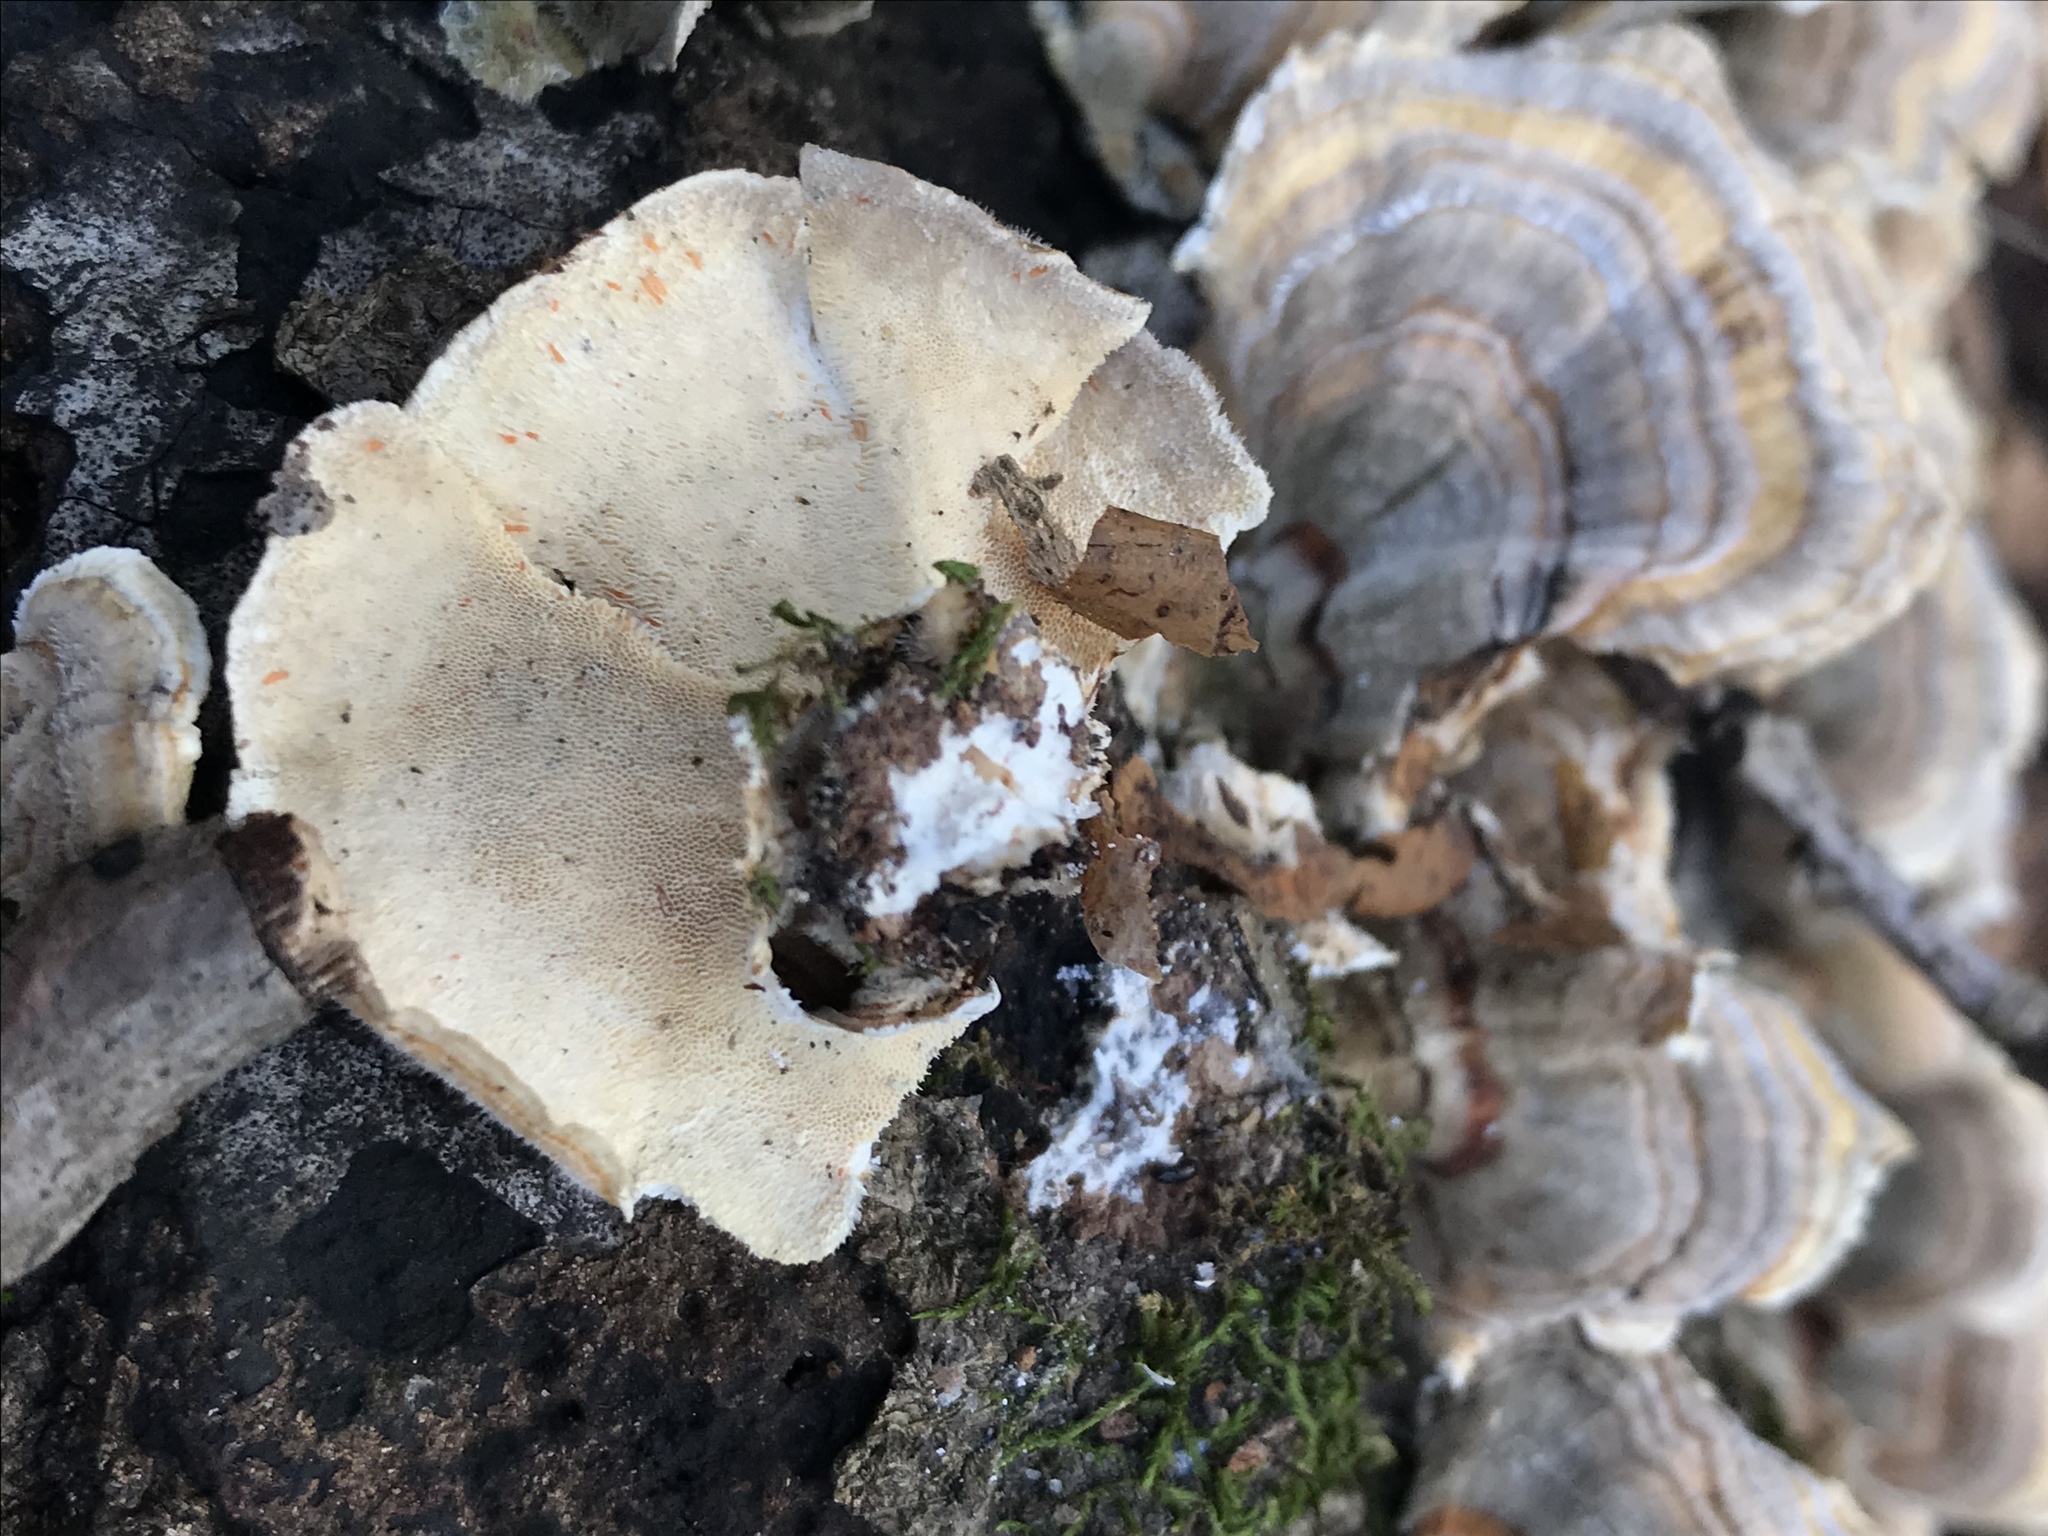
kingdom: Fungi
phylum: Basidiomycota
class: Agaricomycetes
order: Polyporales
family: Polyporaceae
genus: Trametes
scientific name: Trametes versicolor
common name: Turkeytail
